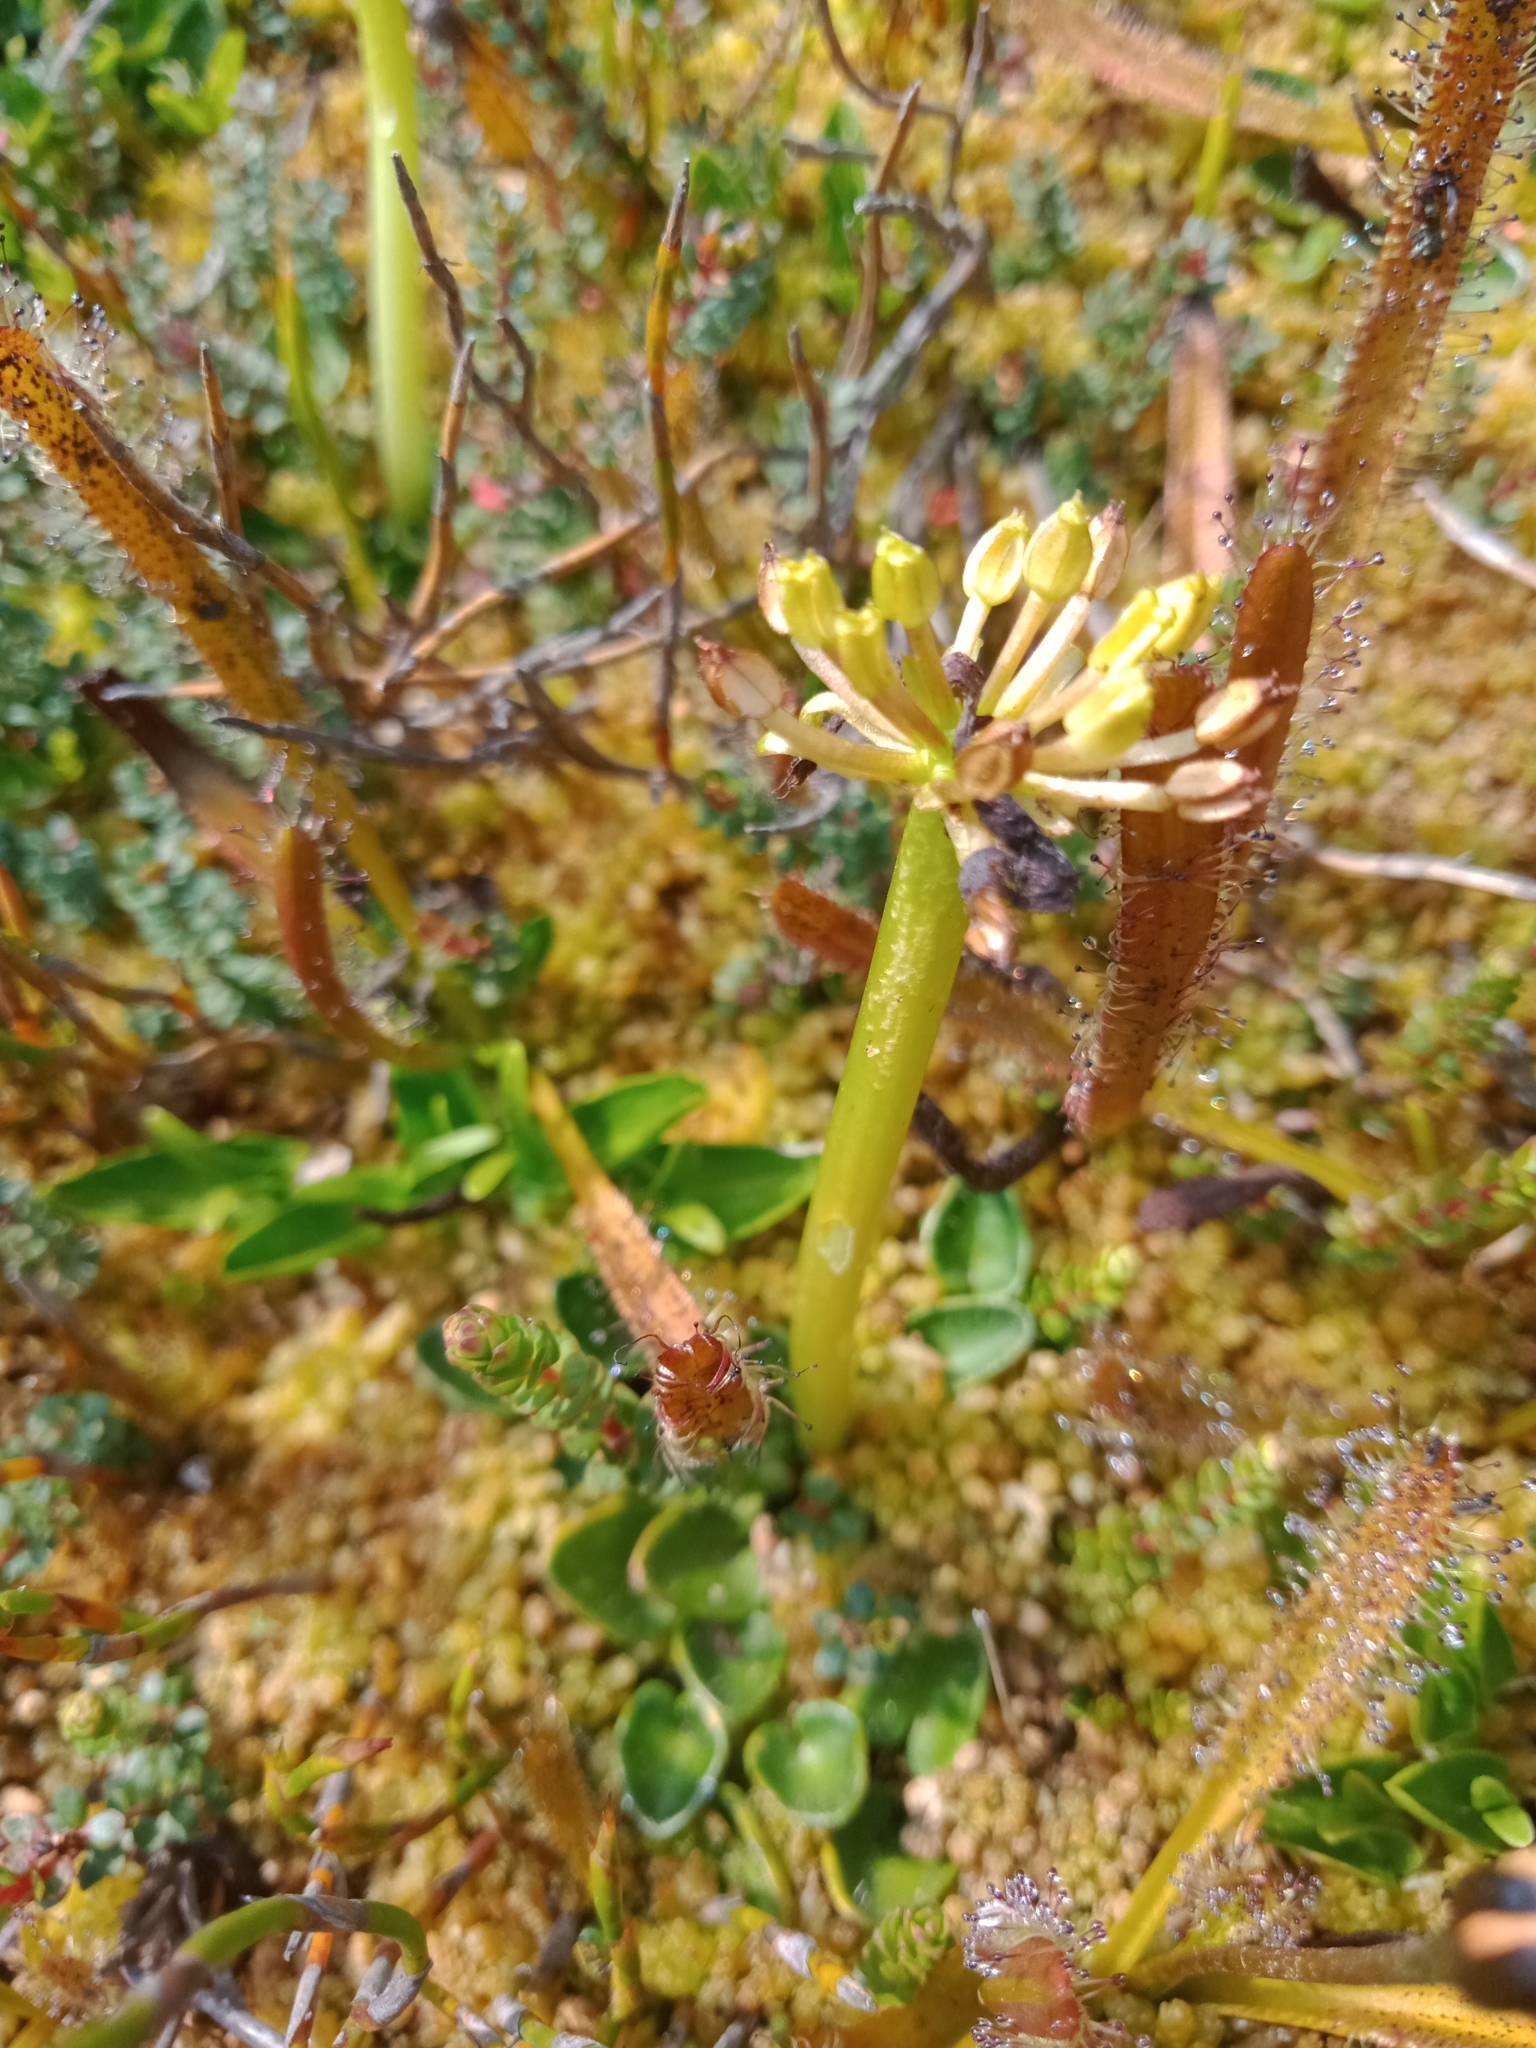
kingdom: Plantae
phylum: Tracheophyta
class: Magnoliopsida
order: Apiales
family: Apiaceae
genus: Diplaspis
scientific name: Diplaspis nivis
